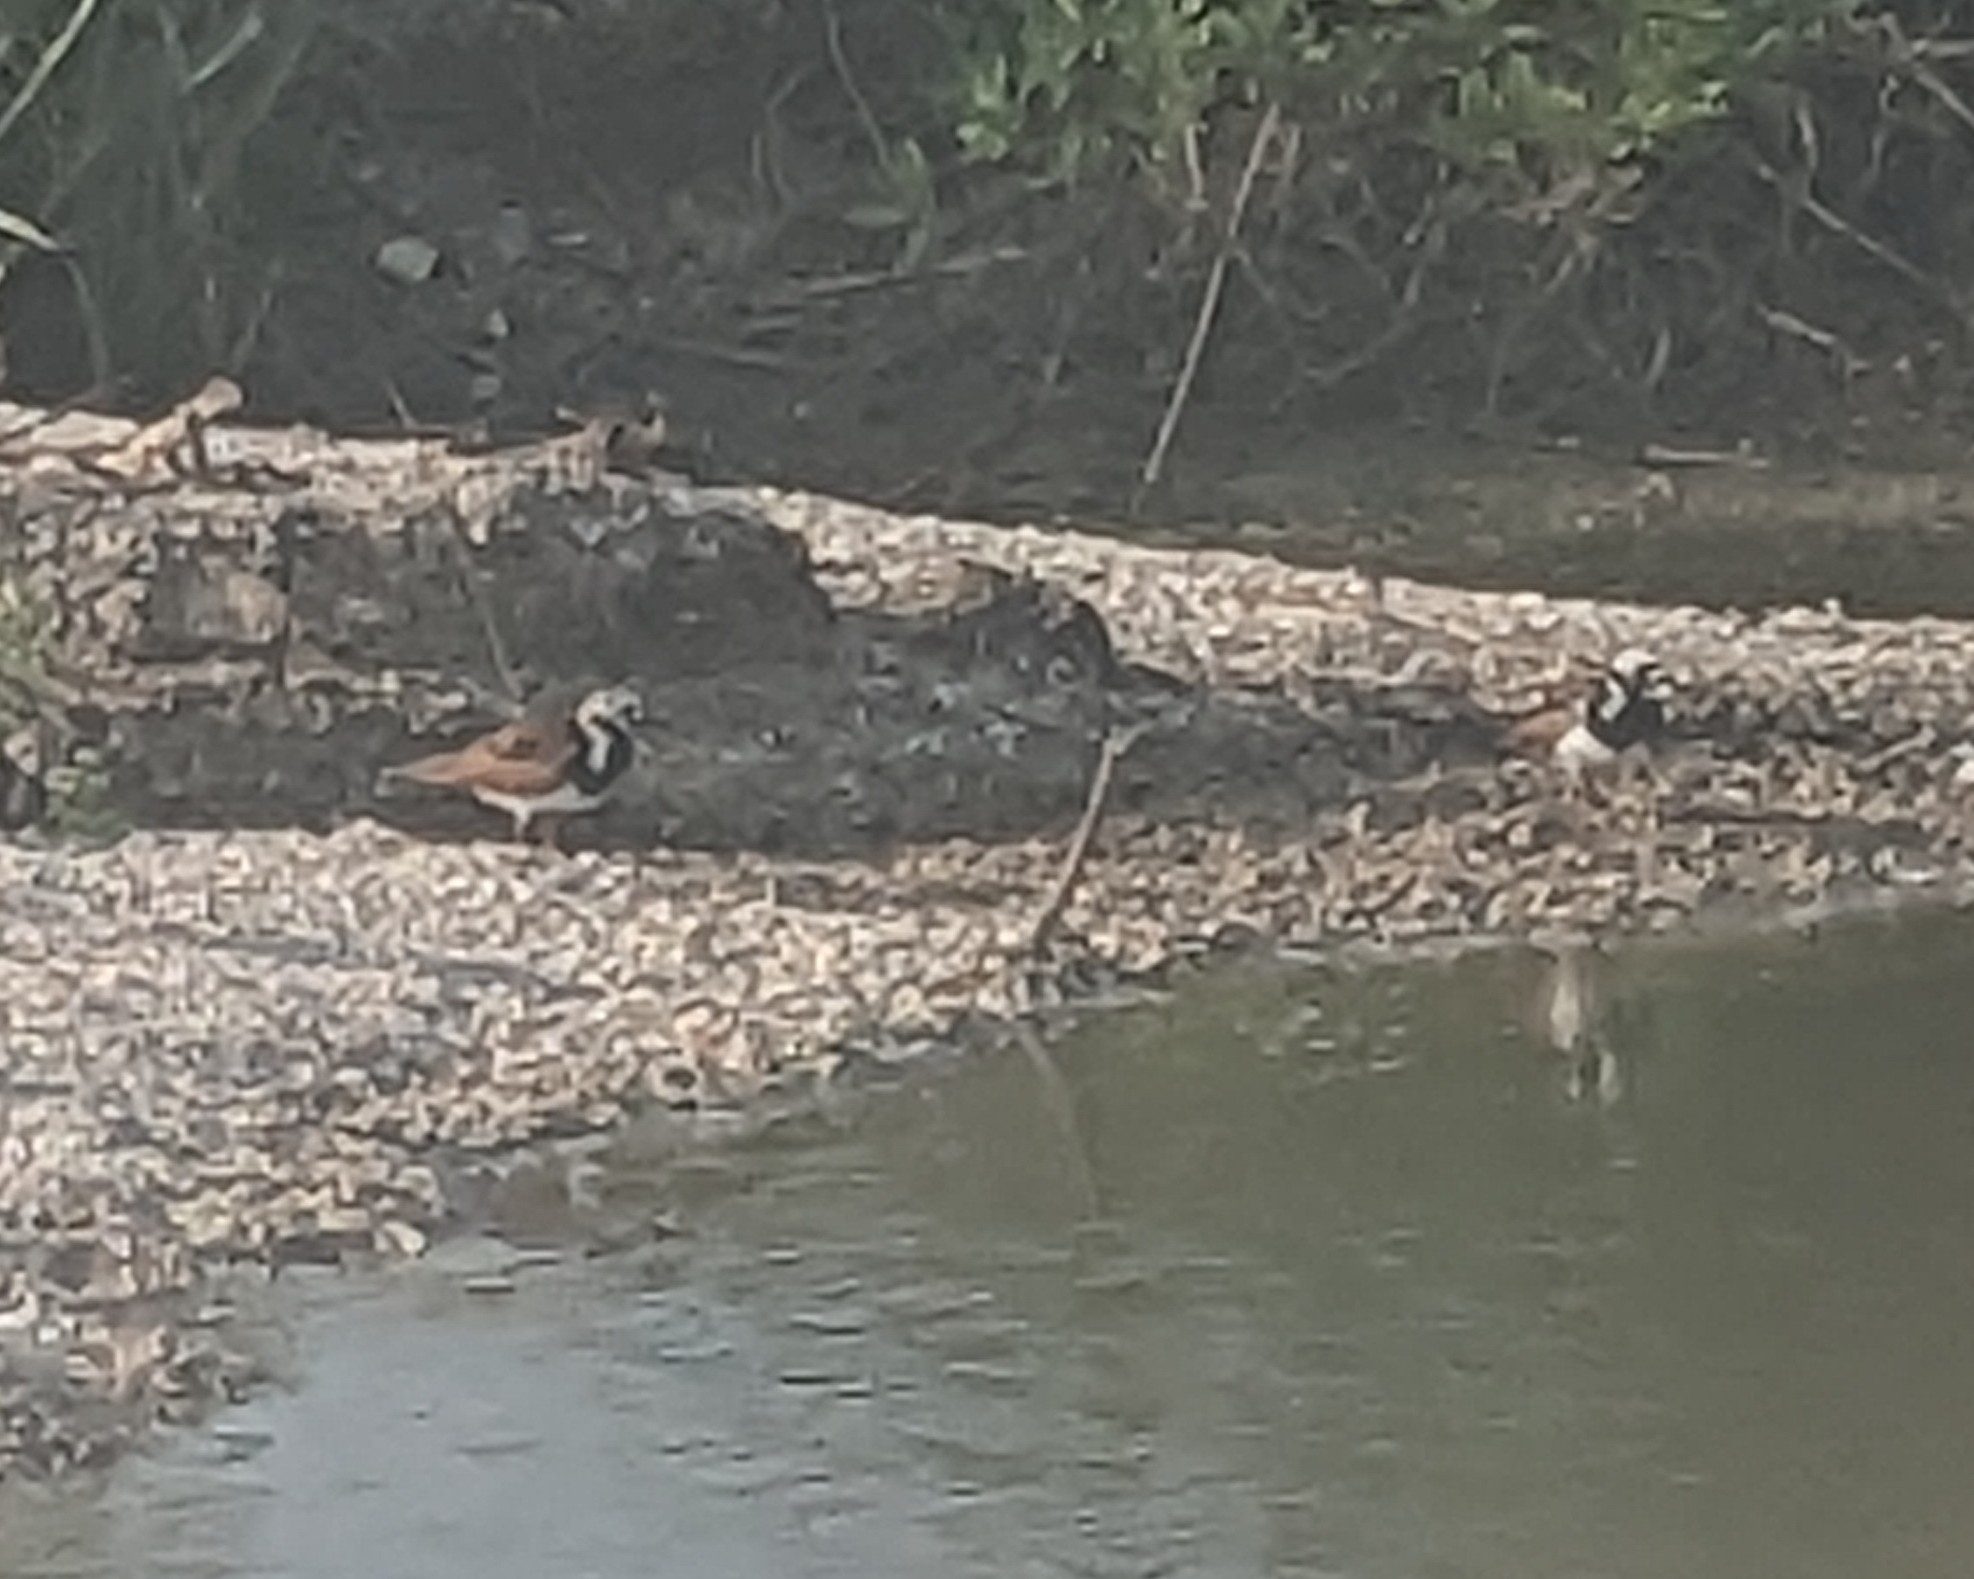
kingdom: Animalia
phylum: Chordata
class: Aves
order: Charadriiformes
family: Scolopacidae
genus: Arenaria
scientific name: Arenaria interpres
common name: Ruddy turnstone
